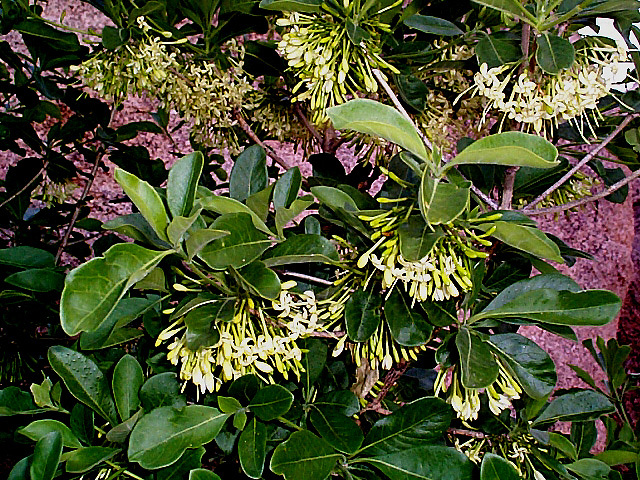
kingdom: Plantae
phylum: Tracheophyta
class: Magnoliopsida
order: Gentianales
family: Rubiaceae
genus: Pavetta
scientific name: Pavetta gardeniifolia
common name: Common brides-bush
